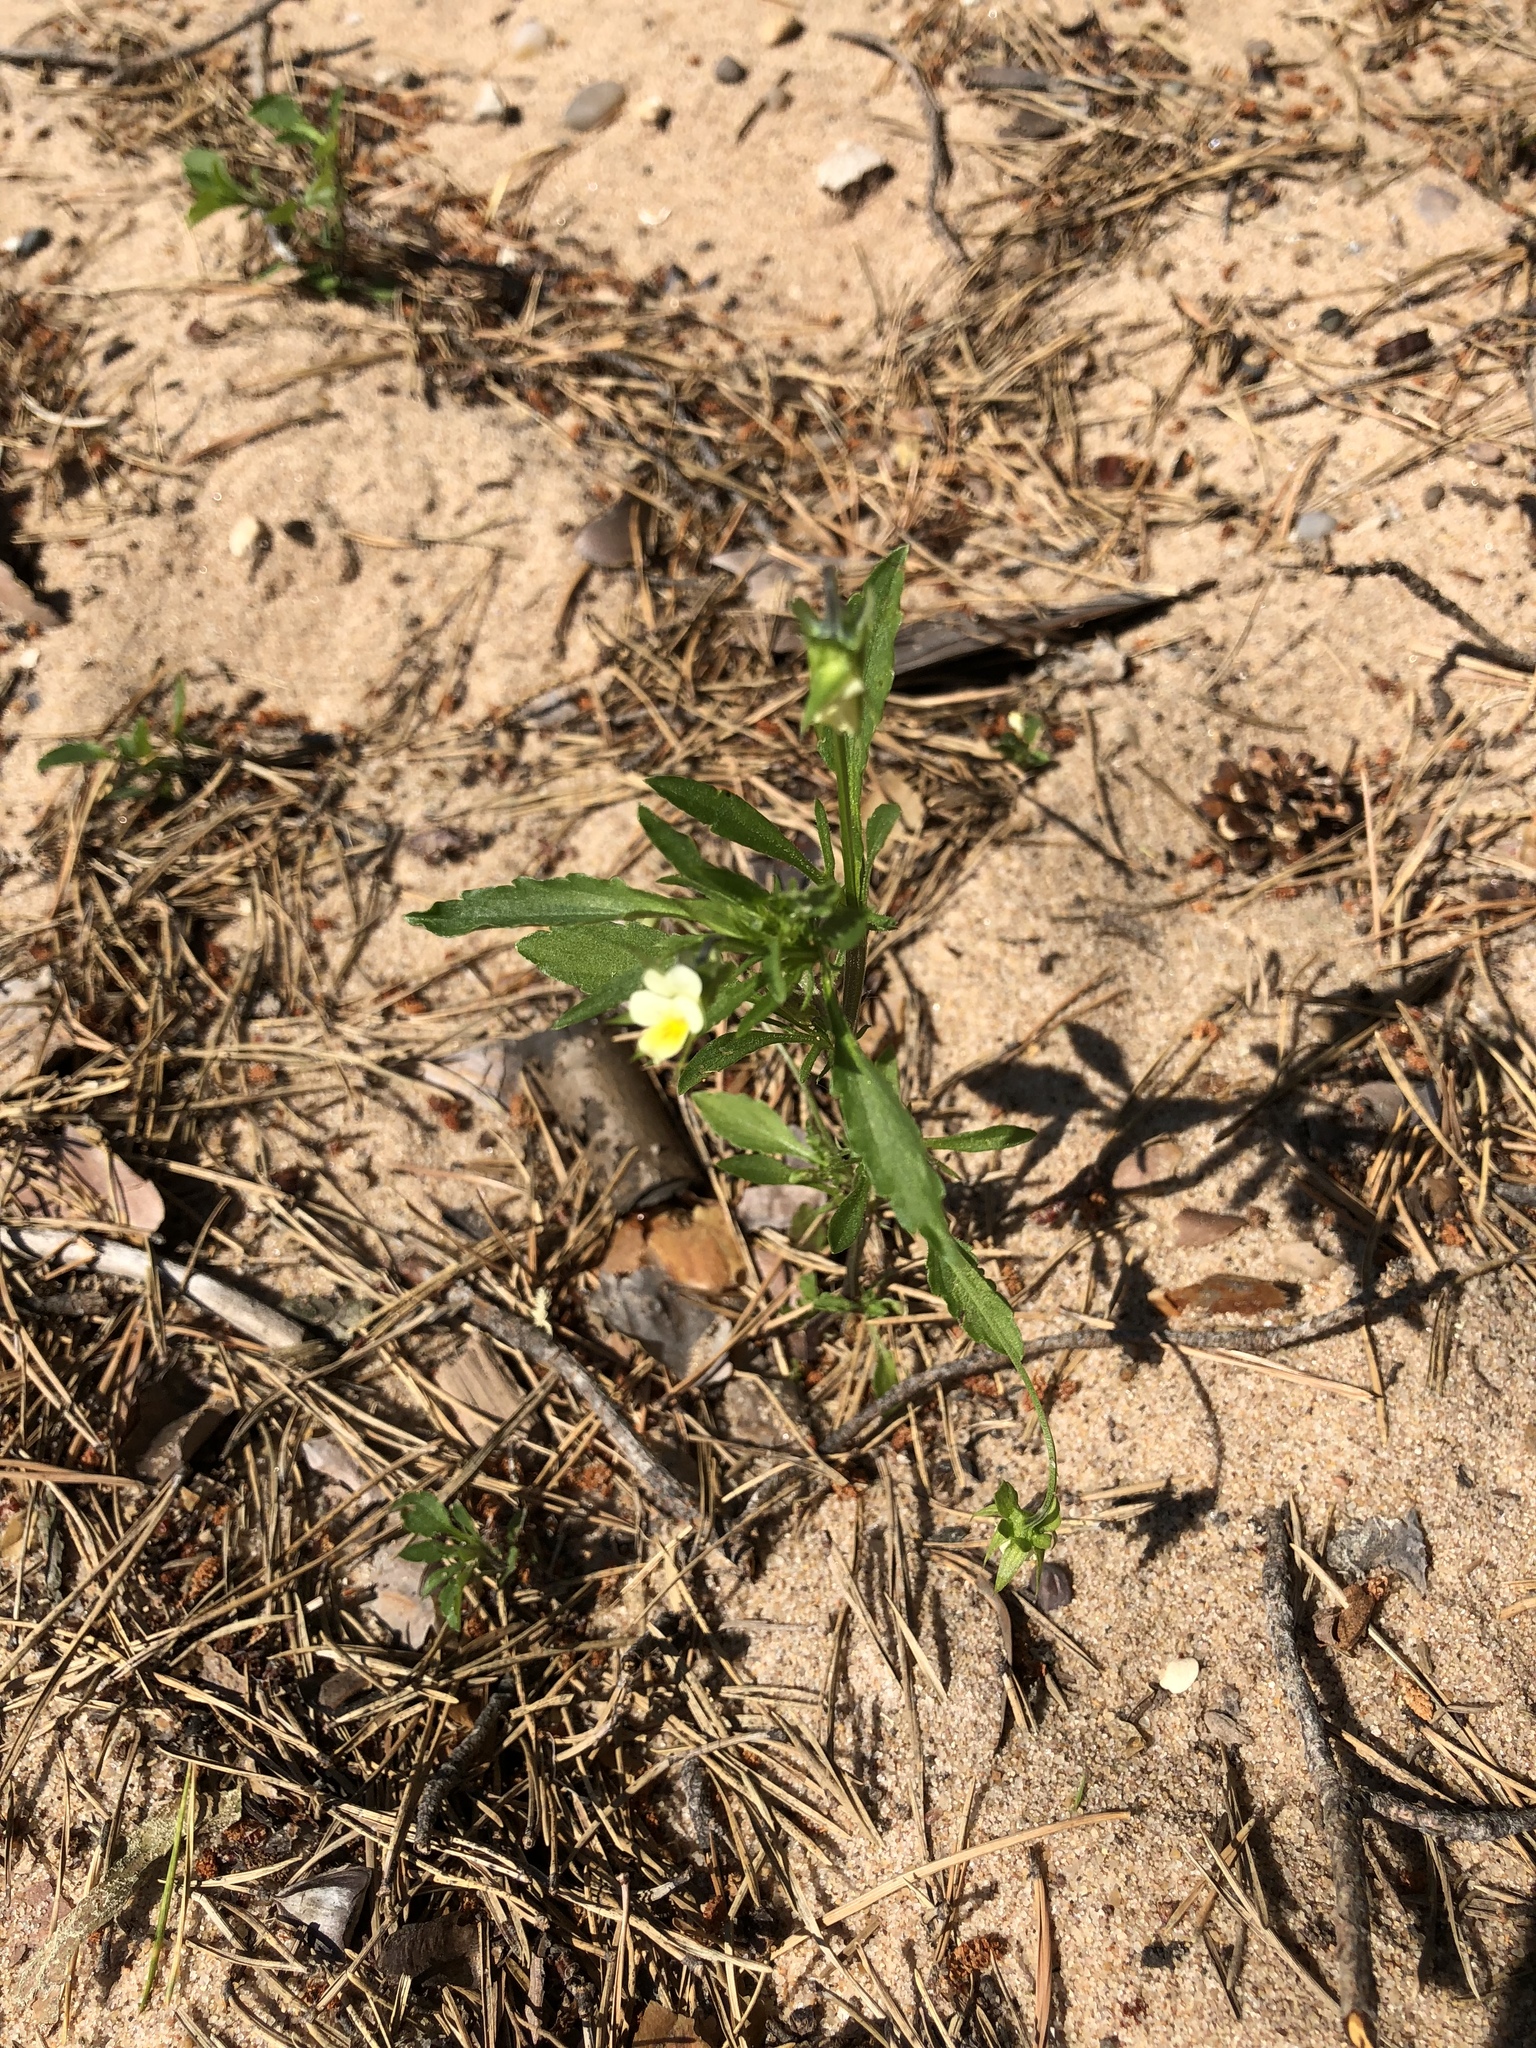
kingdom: Plantae
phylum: Tracheophyta
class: Magnoliopsida
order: Malpighiales
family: Violaceae
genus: Viola
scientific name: Viola arvensis
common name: Field pansy
